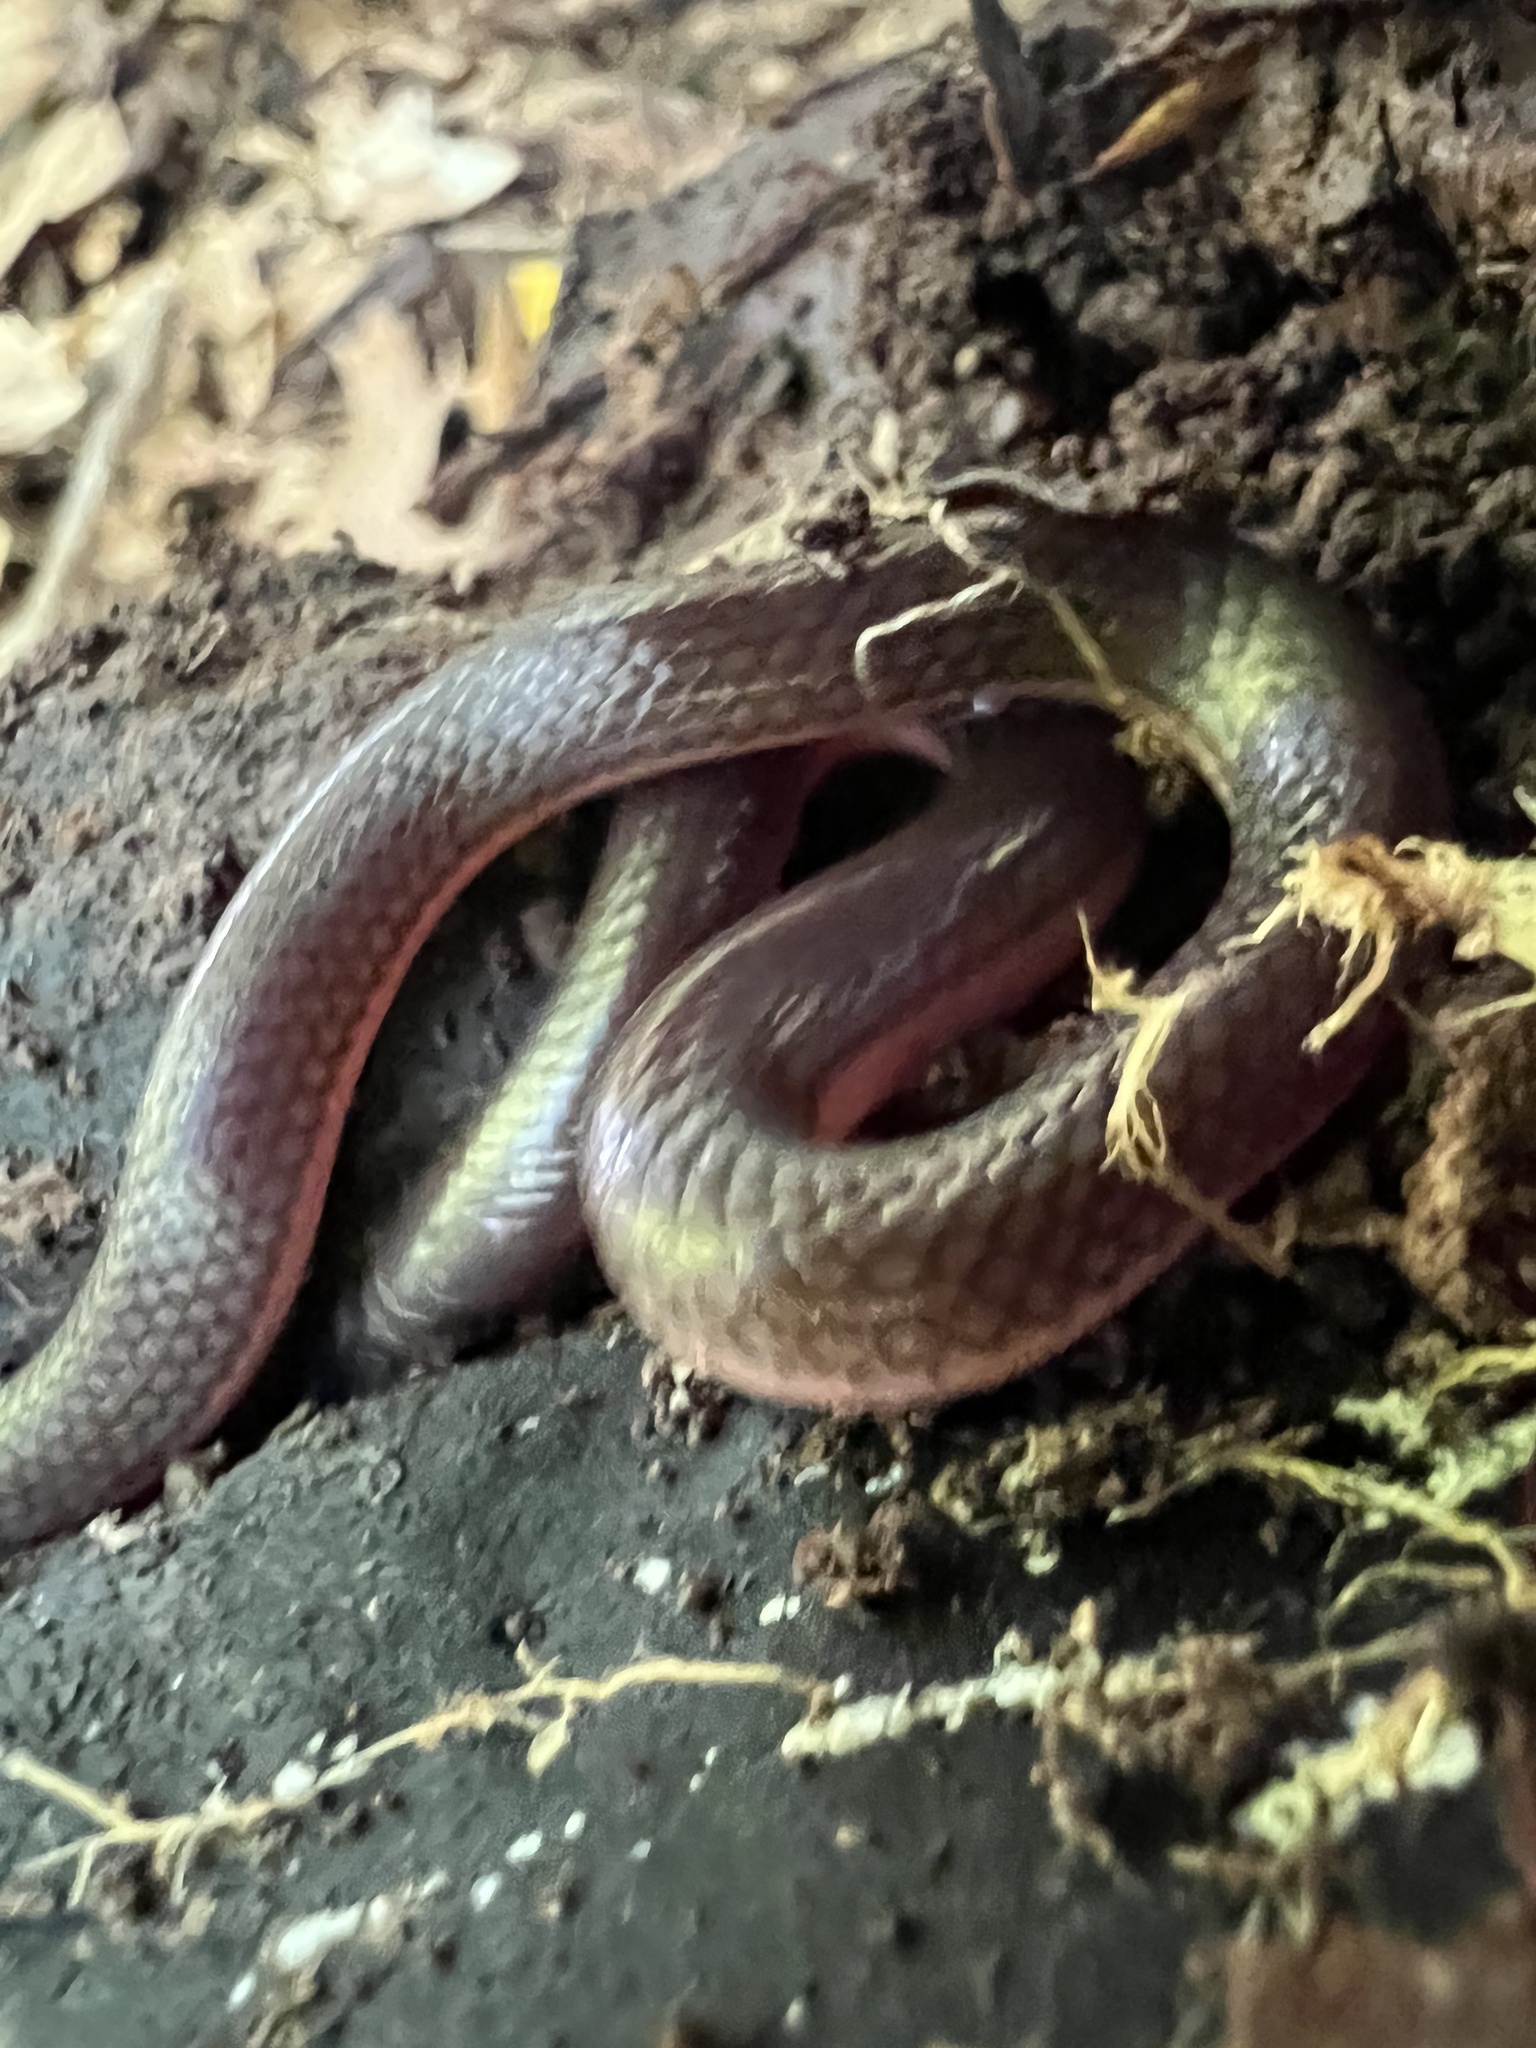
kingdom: Animalia
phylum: Chordata
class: Squamata
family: Colubridae
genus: Carphophis
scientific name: Carphophis amoenus
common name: Eastern worm snake
